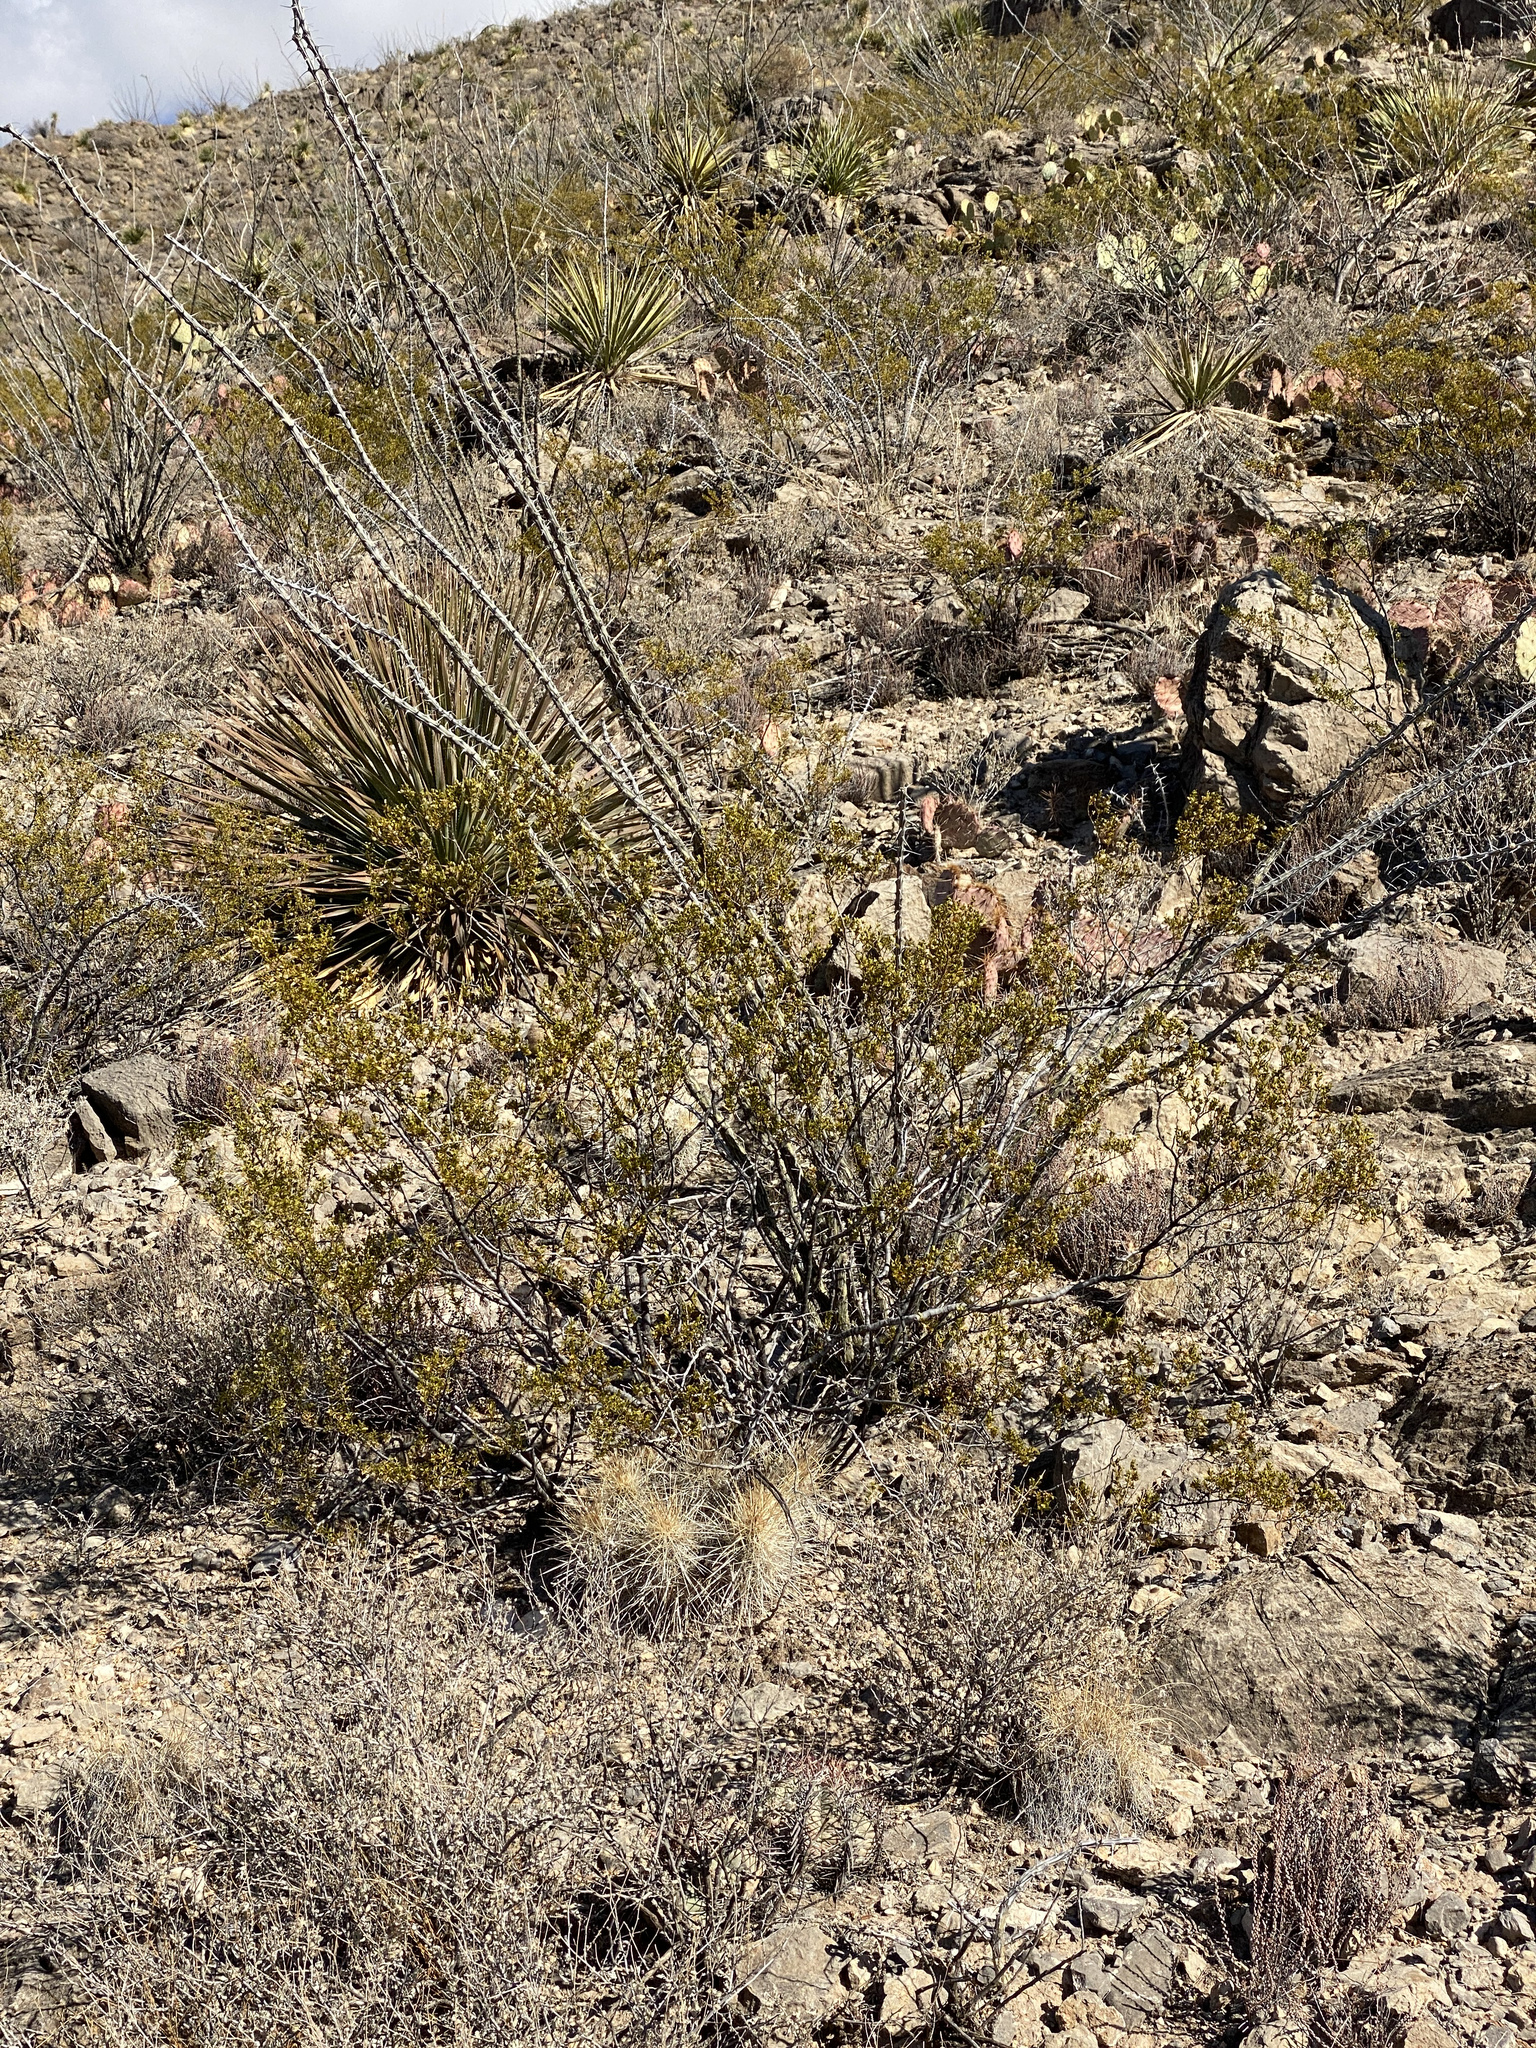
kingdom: Plantae
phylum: Tracheophyta
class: Magnoliopsida
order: Ericales
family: Fouquieriaceae
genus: Fouquieria
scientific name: Fouquieria splendens
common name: Vine-cactus
